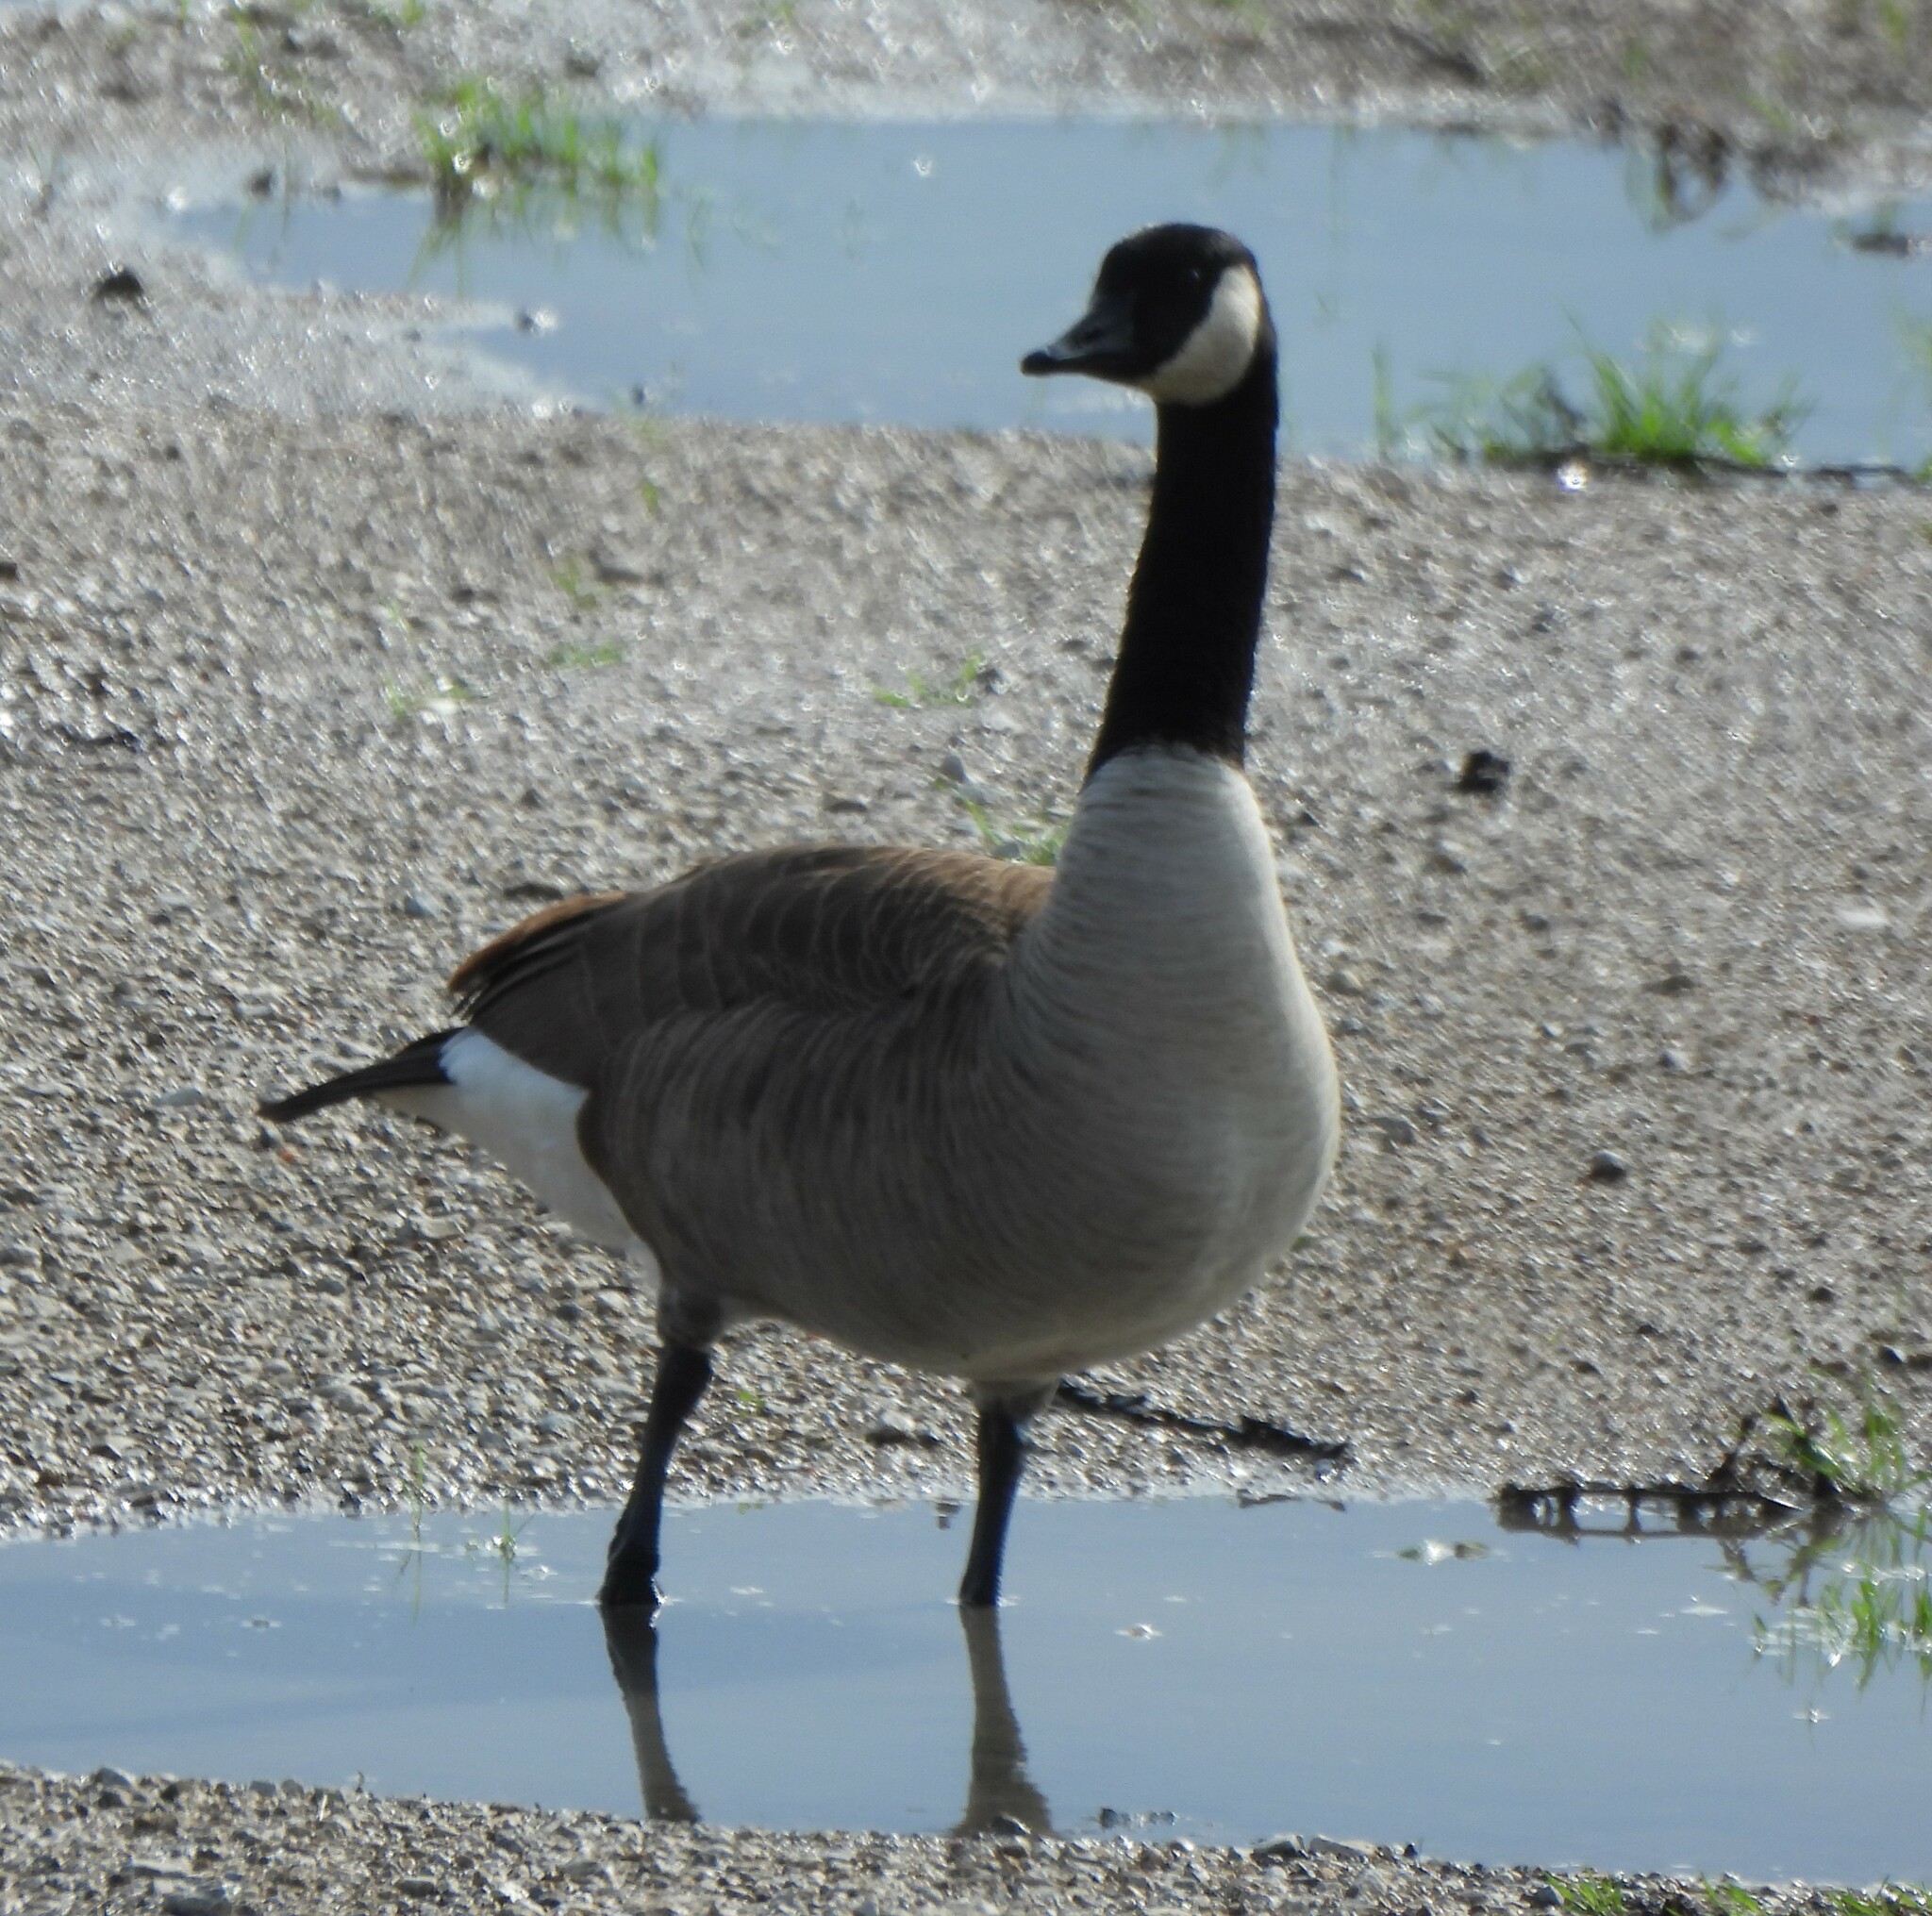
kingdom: Animalia
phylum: Chordata
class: Aves
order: Anseriformes
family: Anatidae
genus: Branta
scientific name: Branta canadensis
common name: Canada goose
